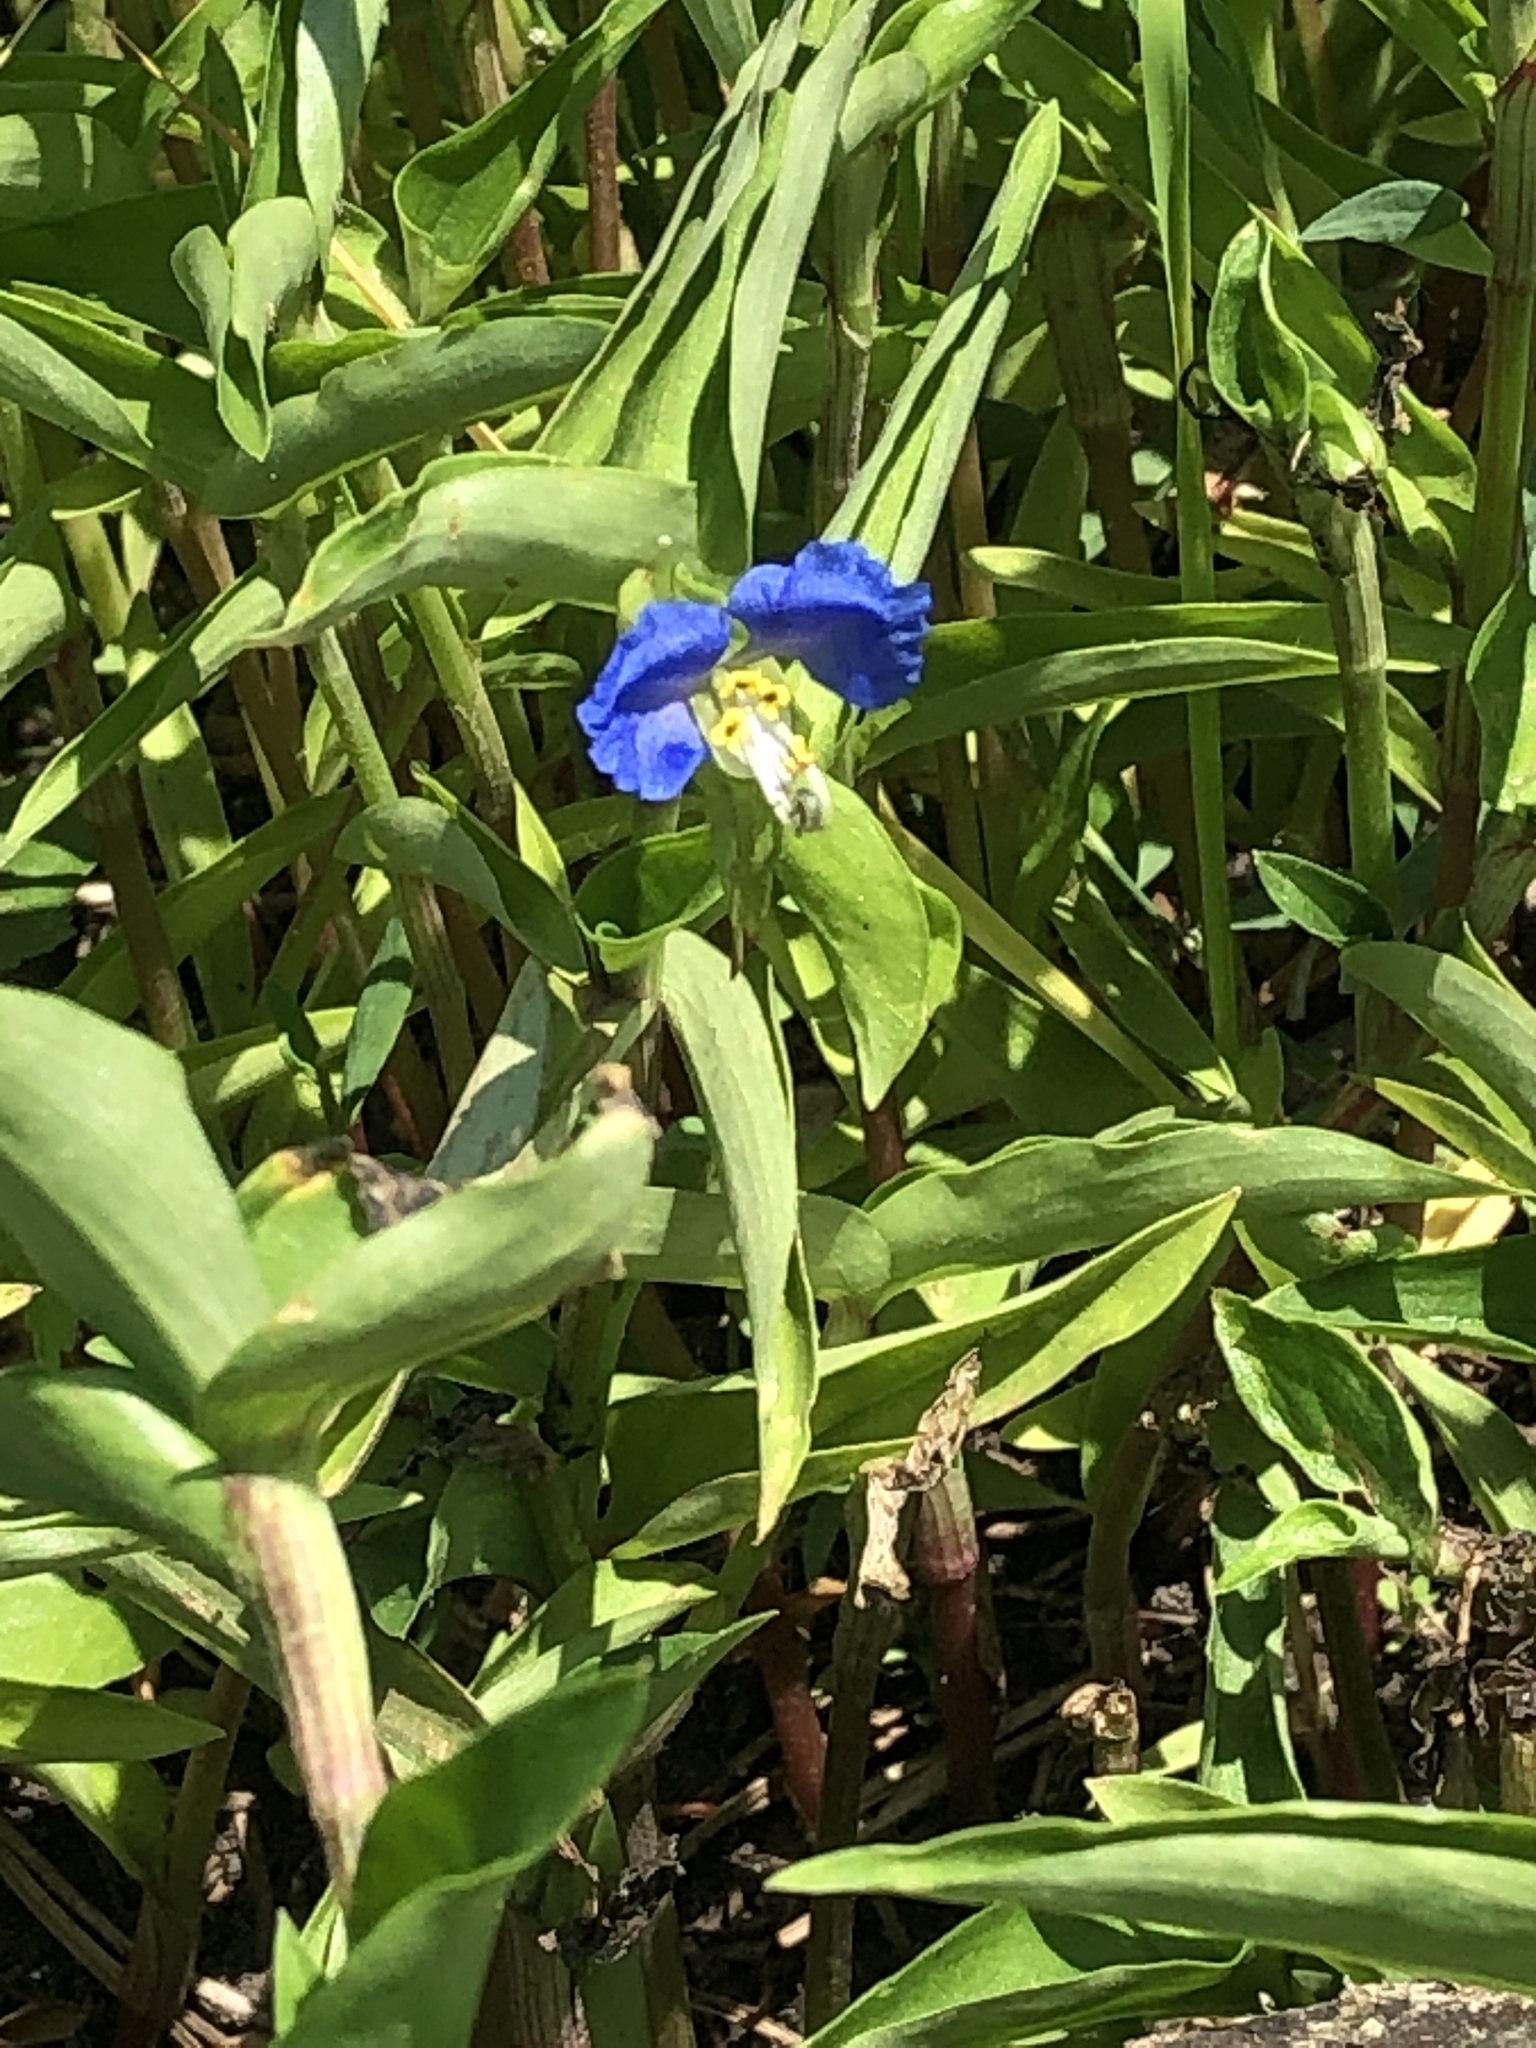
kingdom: Plantae
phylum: Tracheophyta
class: Liliopsida
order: Commelinales
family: Commelinaceae
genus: Commelina
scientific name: Commelina communis
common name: Asiatic dayflower
